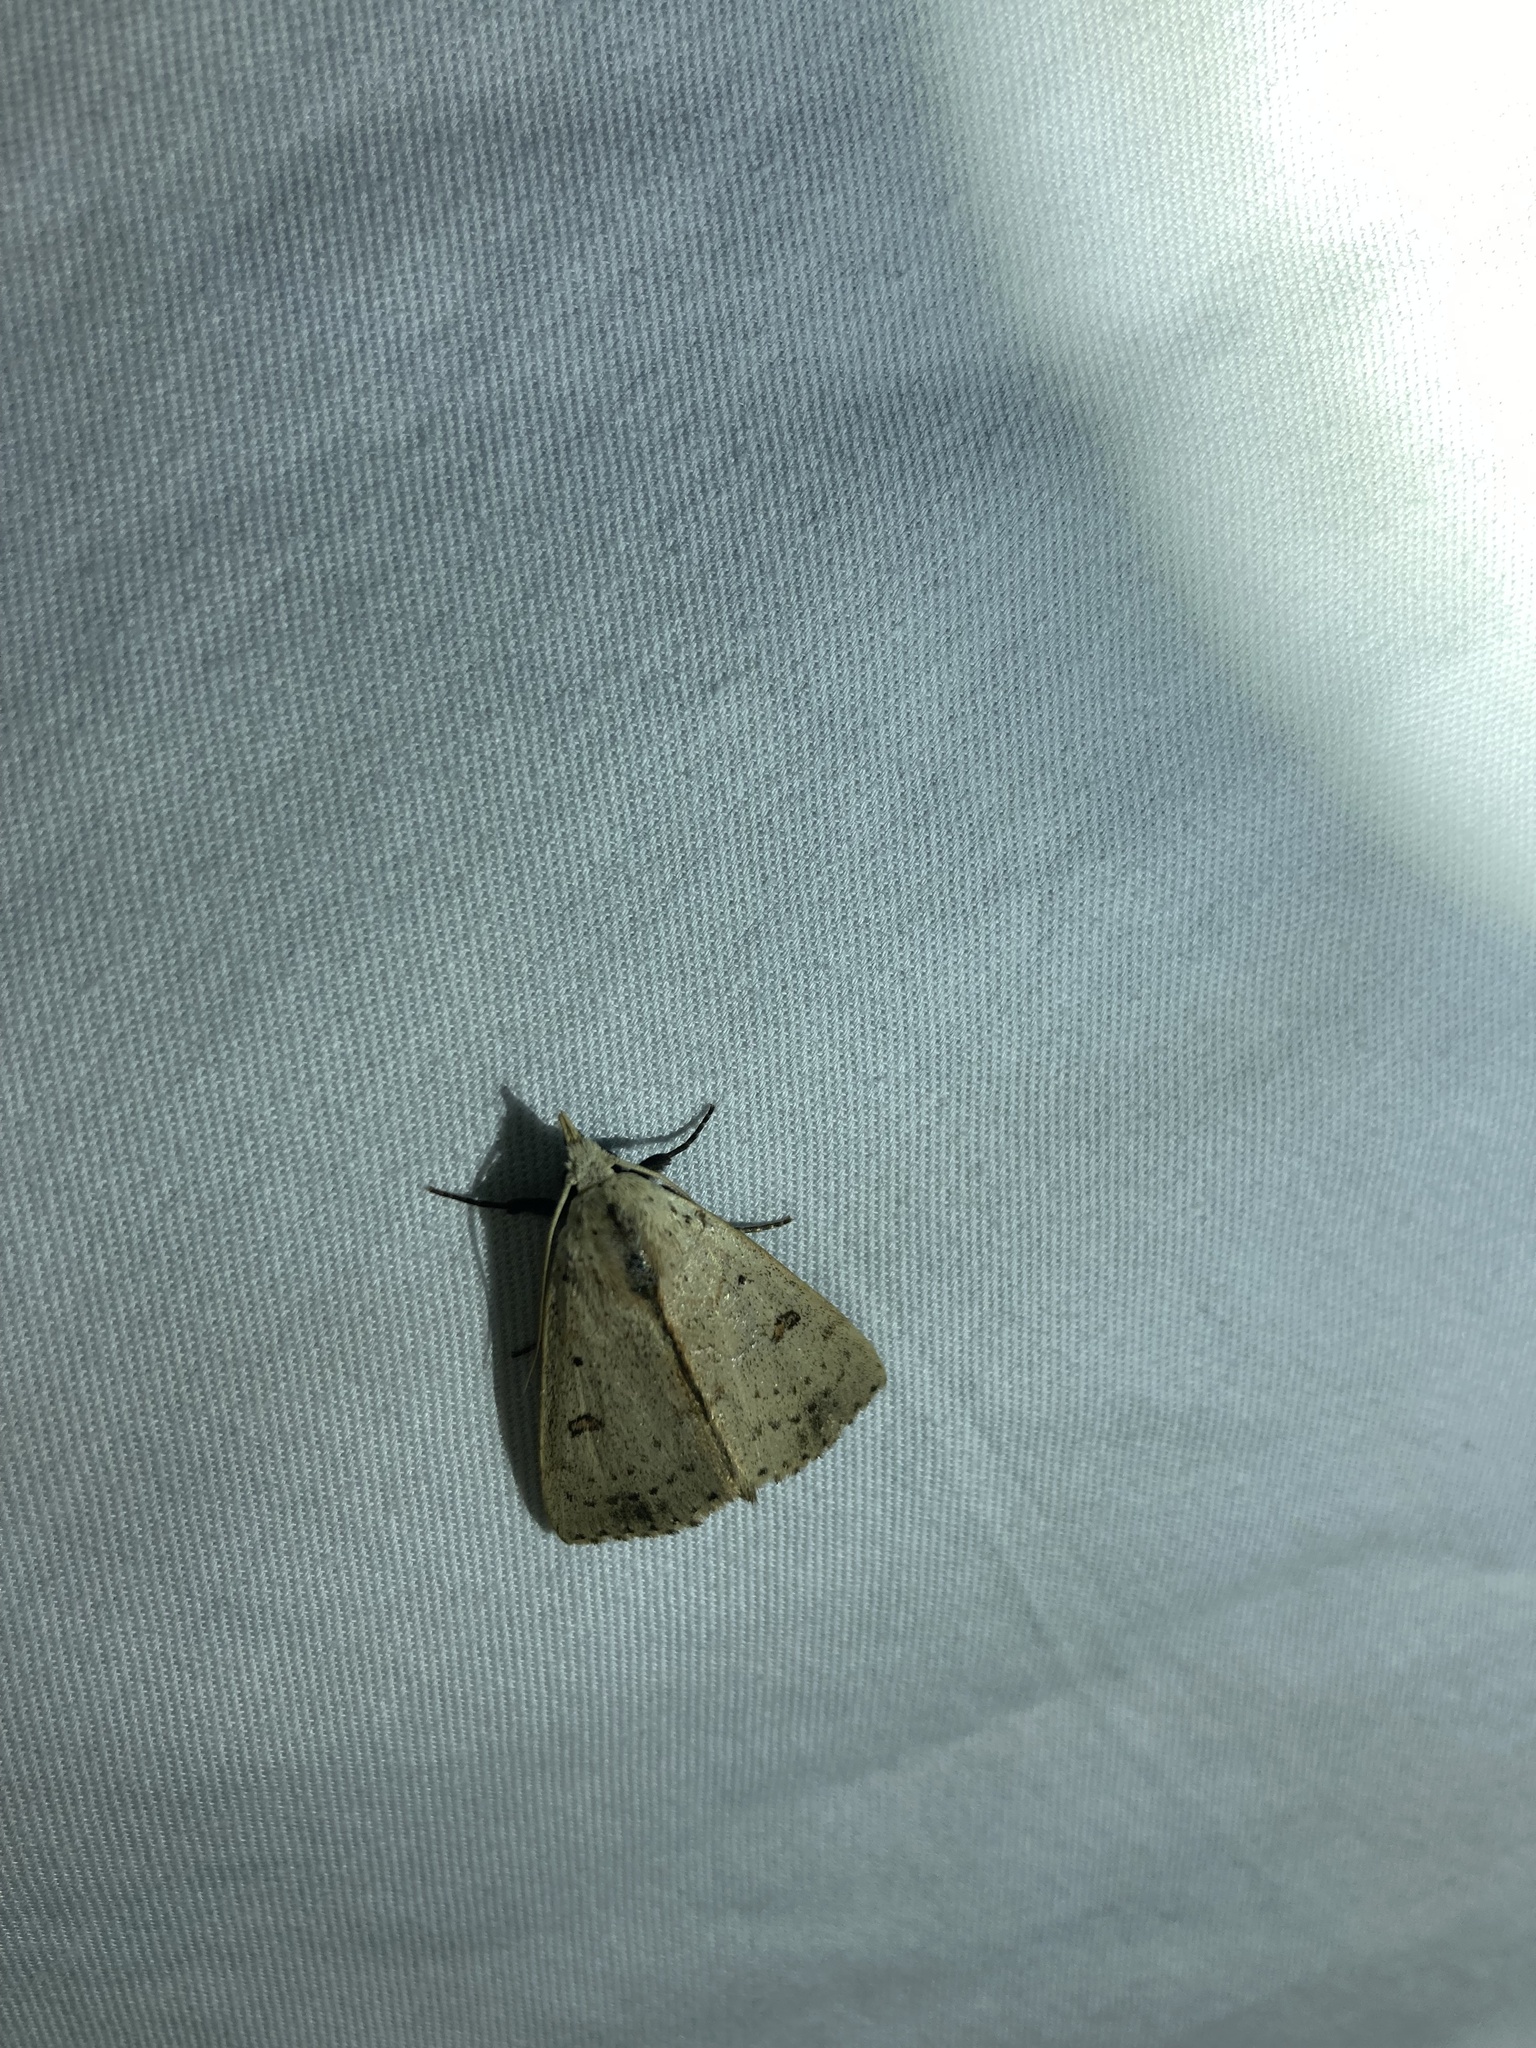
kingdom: Animalia
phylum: Arthropoda
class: Insecta
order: Lepidoptera
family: Erebidae
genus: Scolecocampa
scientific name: Scolecocampa liburna
